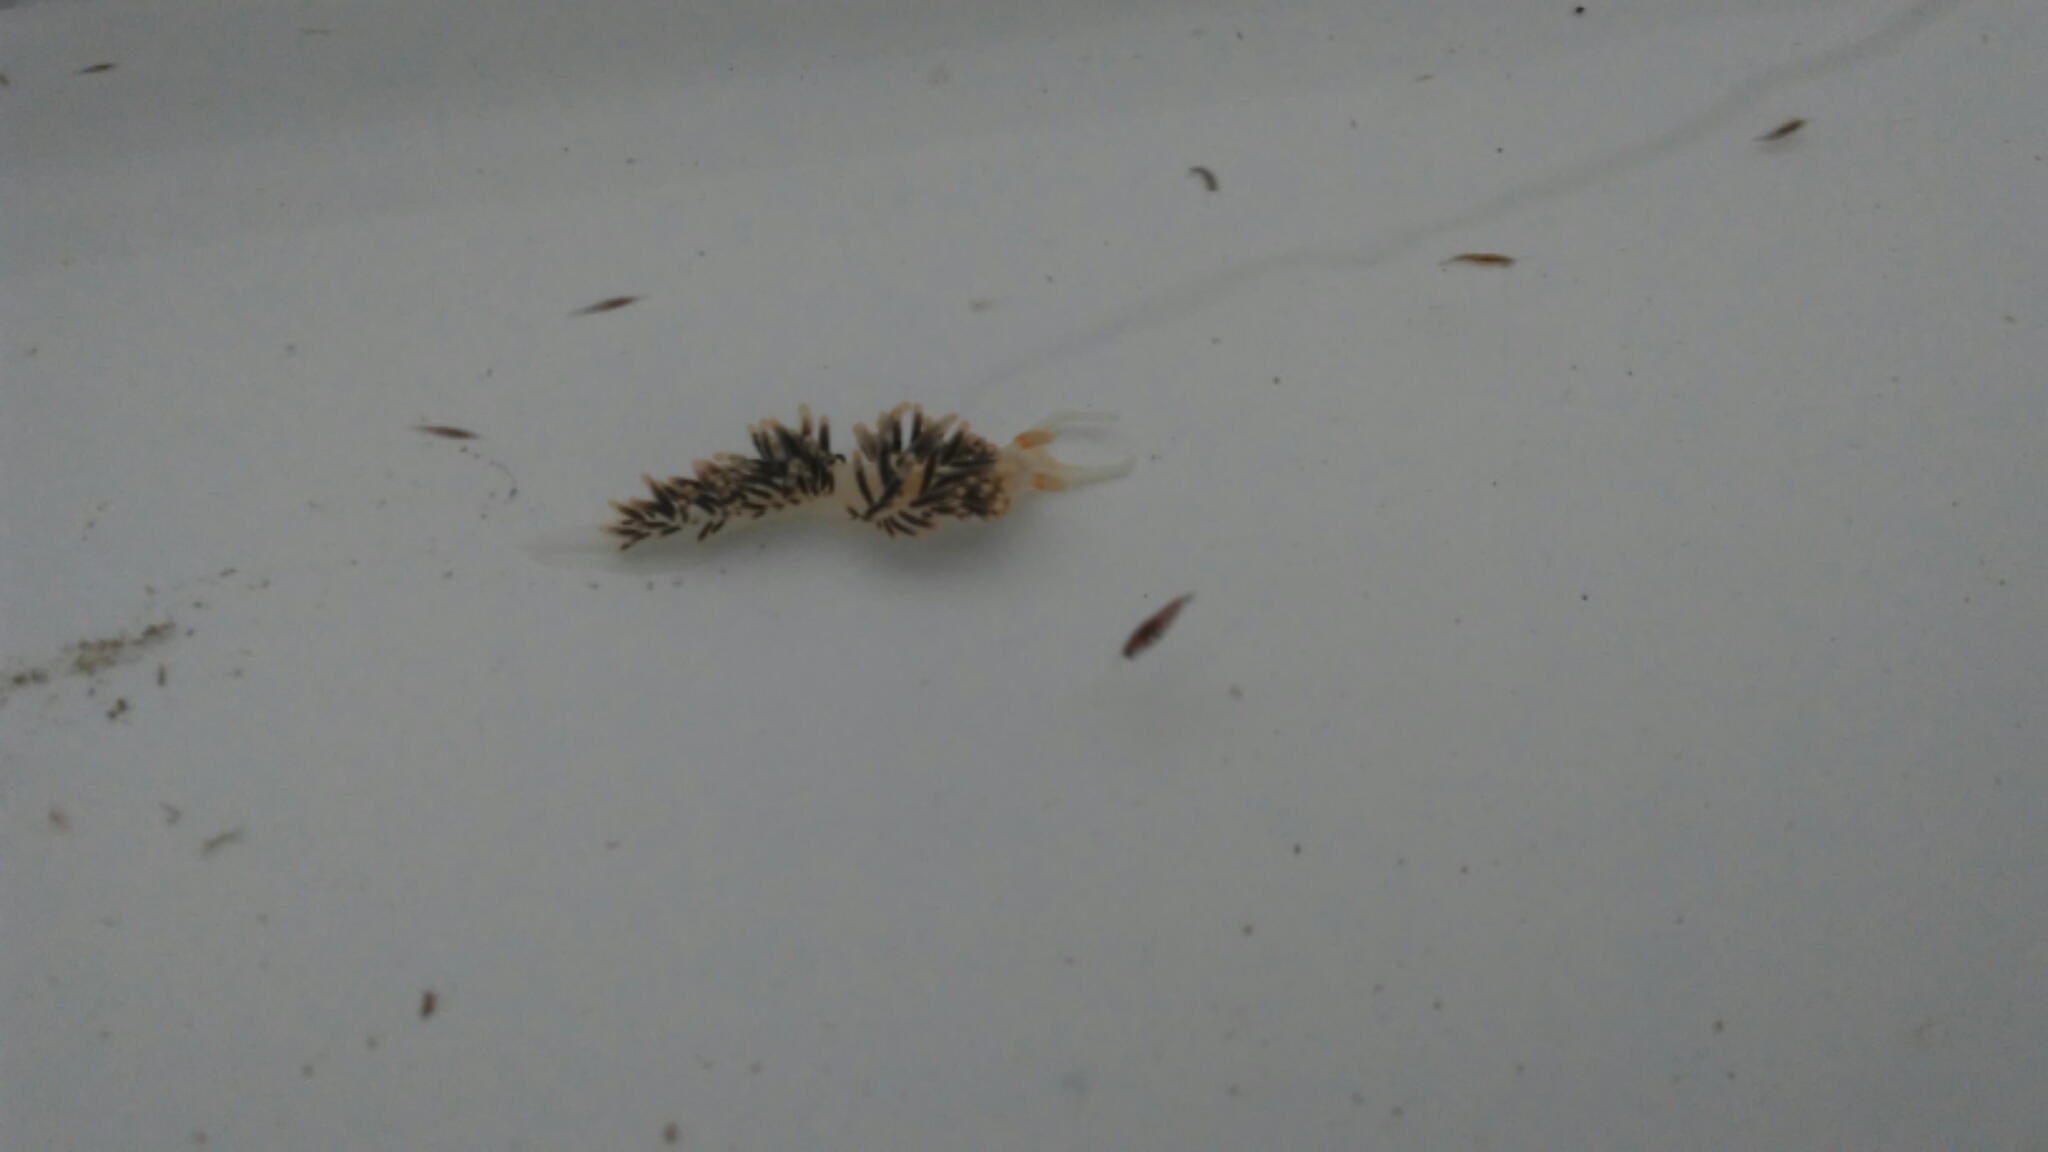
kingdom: Animalia
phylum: Mollusca
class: Gastropoda
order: Nudibranchia
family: Facelinidae
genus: Phidiana
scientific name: Phidiana hiltoni
